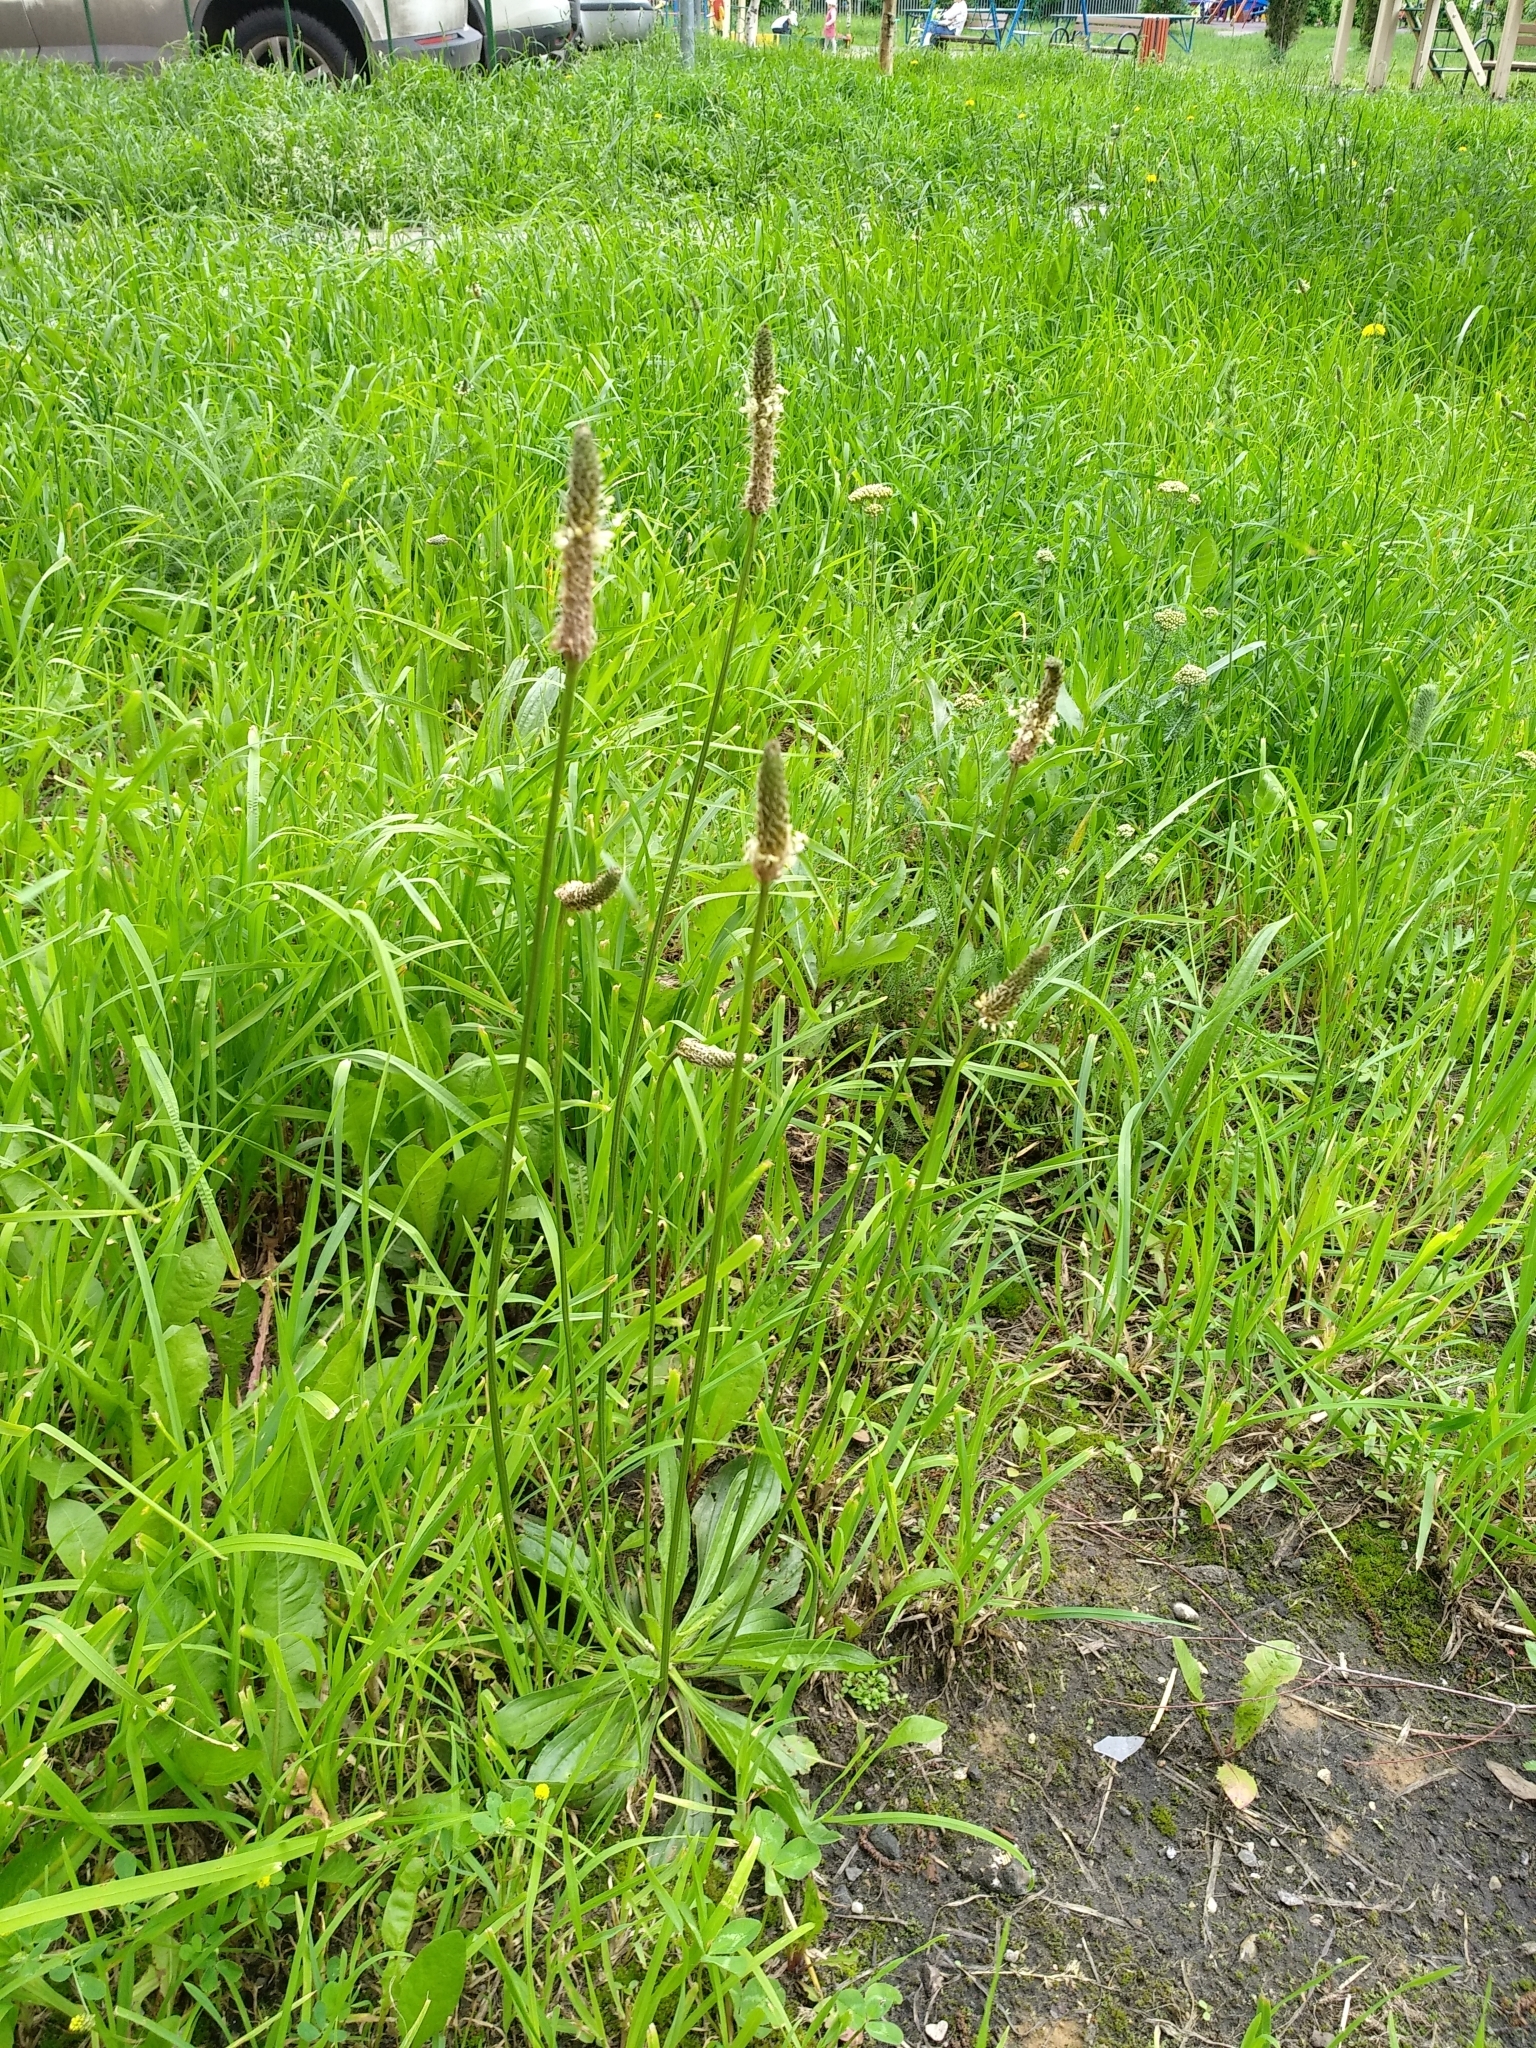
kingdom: Plantae
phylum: Tracheophyta
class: Magnoliopsida
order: Lamiales
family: Plantaginaceae
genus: Plantago
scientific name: Plantago lanceolata
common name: Ribwort plantain
